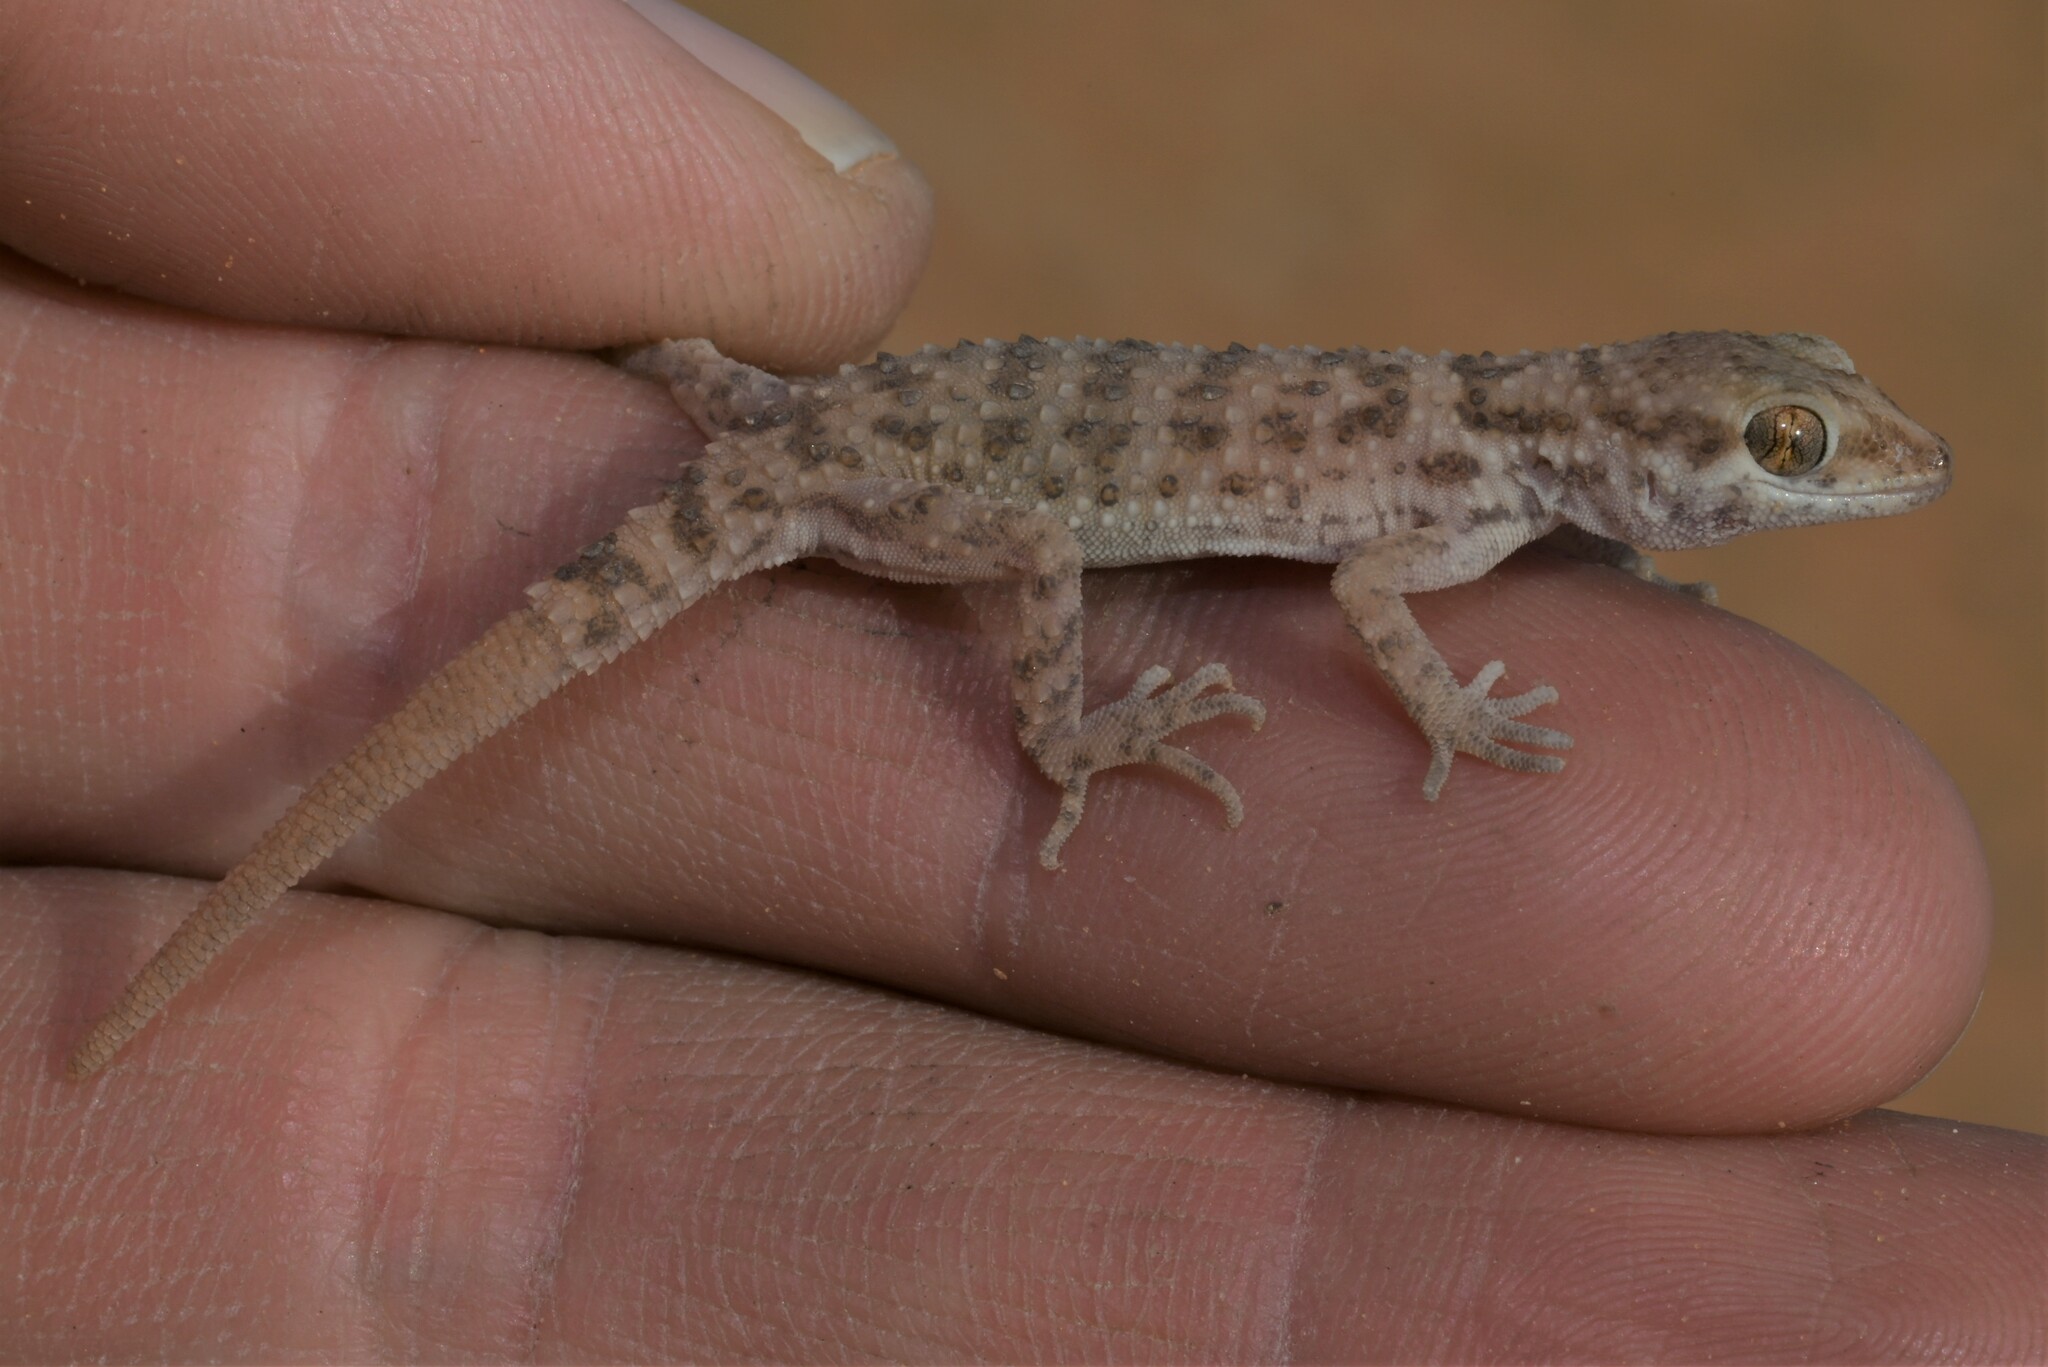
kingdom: Animalia
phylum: Chordata
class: Squamata
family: Gekkonidae
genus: Bunopus
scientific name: Bunopus tuberculatus
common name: Southern tuberculated gecko
